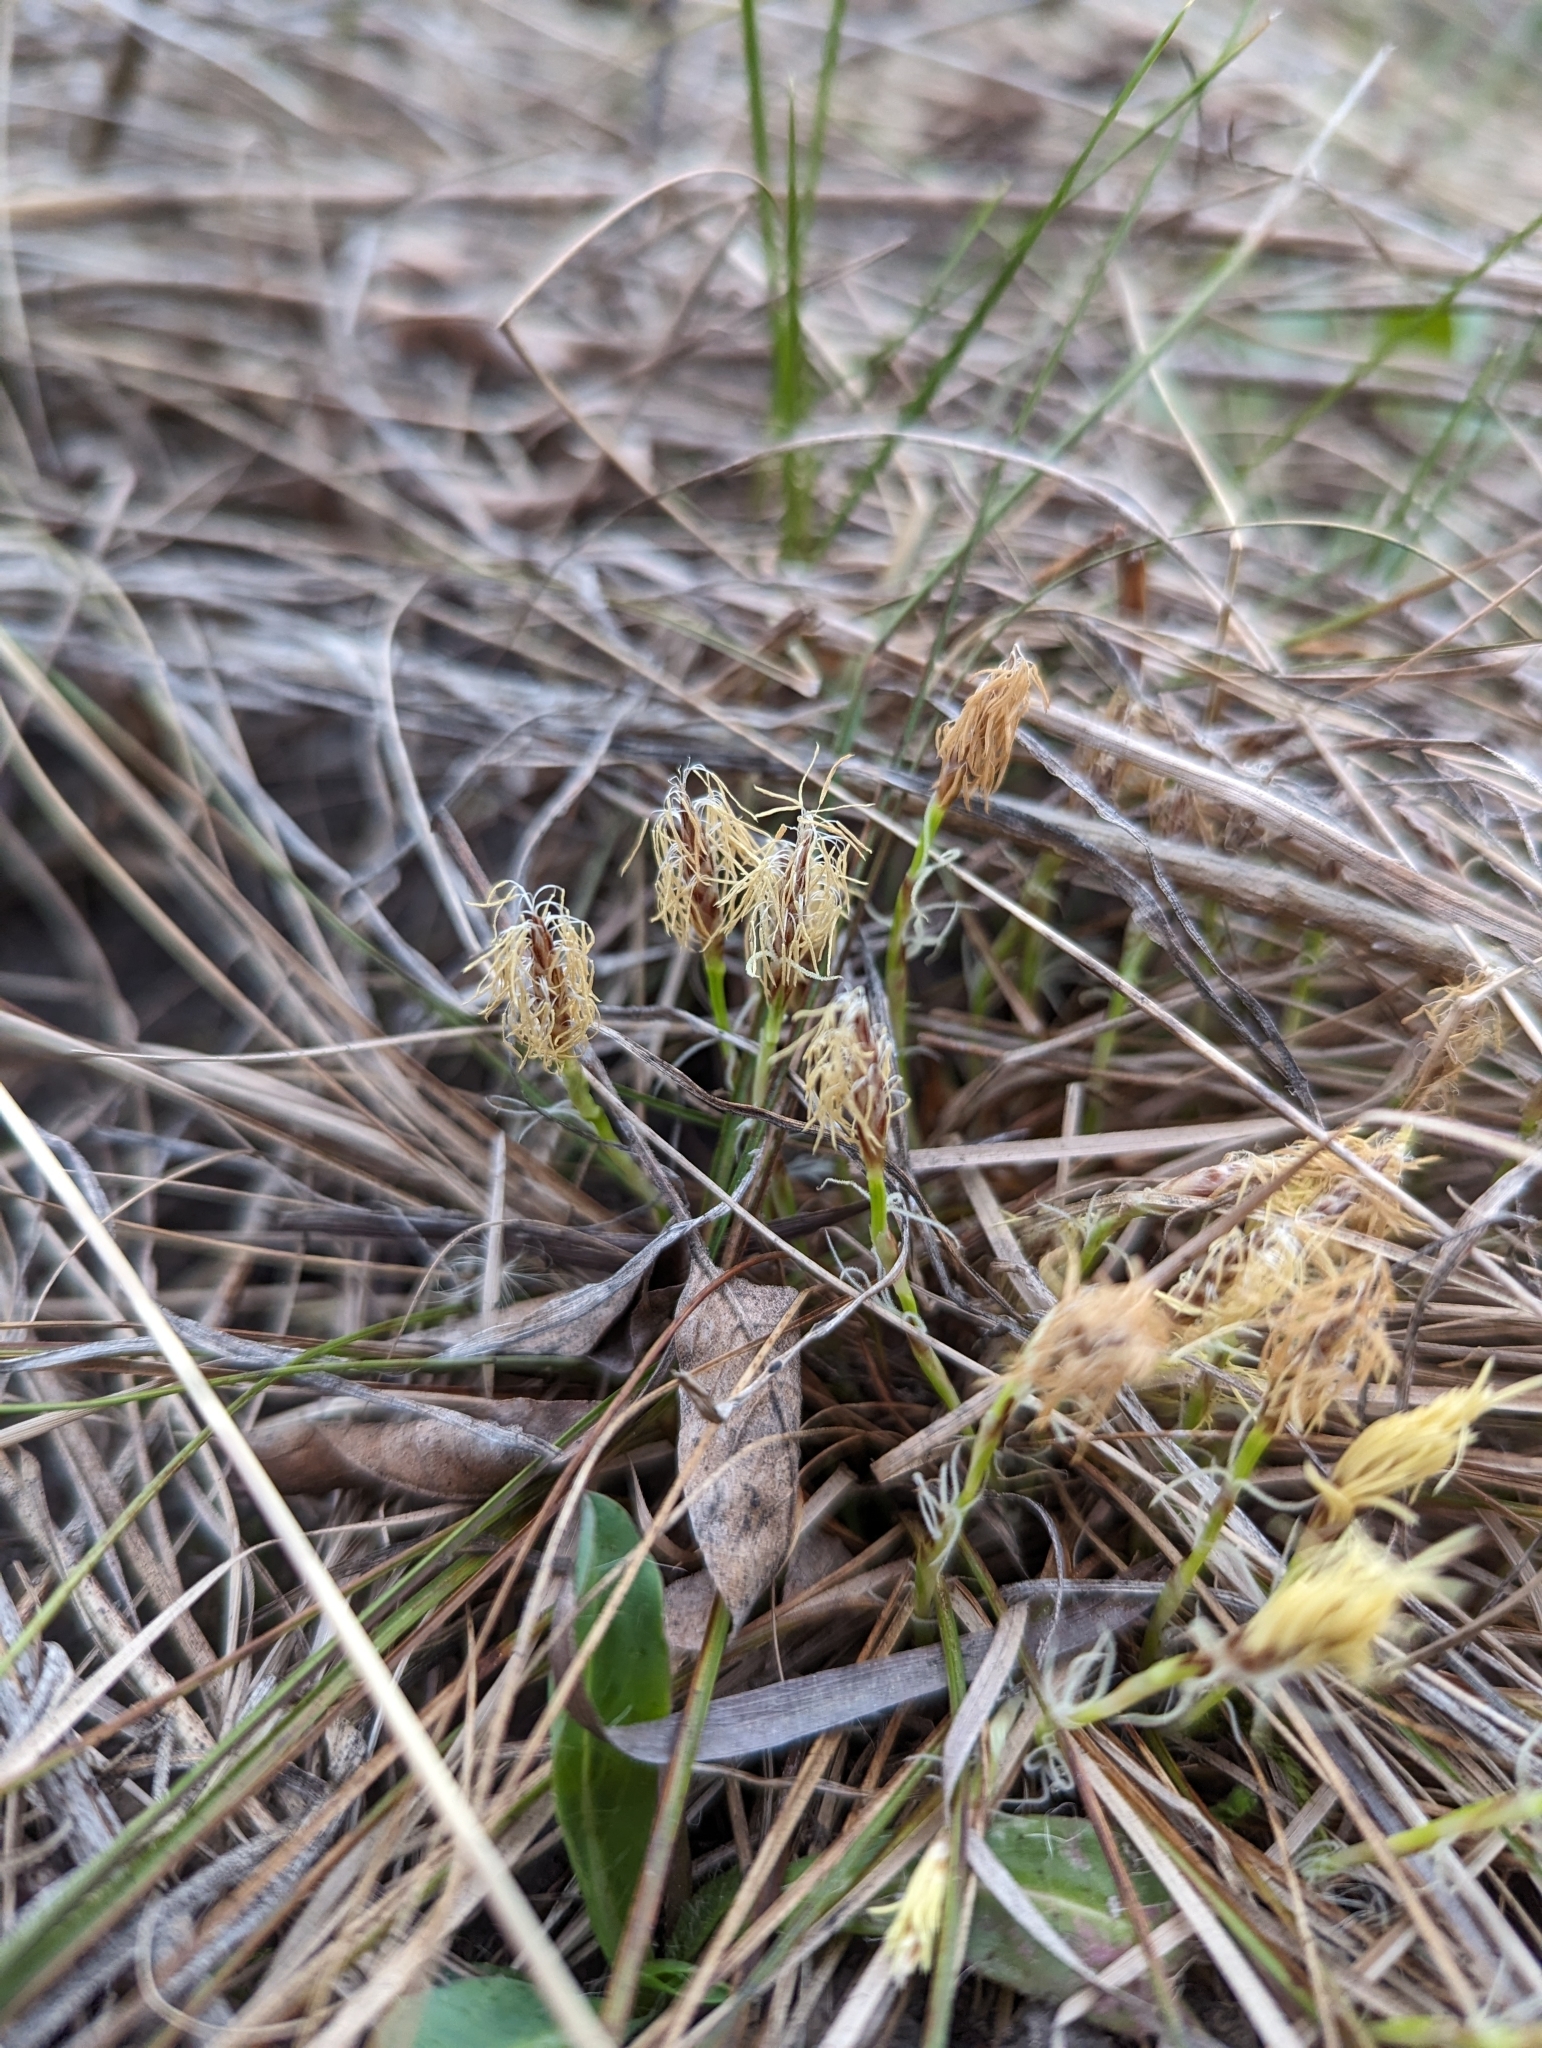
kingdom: Plantae
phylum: Tracheophyta
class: Liliopsida
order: Poales
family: Cyperaceae
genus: Carex
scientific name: Carex humilis
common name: Dwarf sedge
